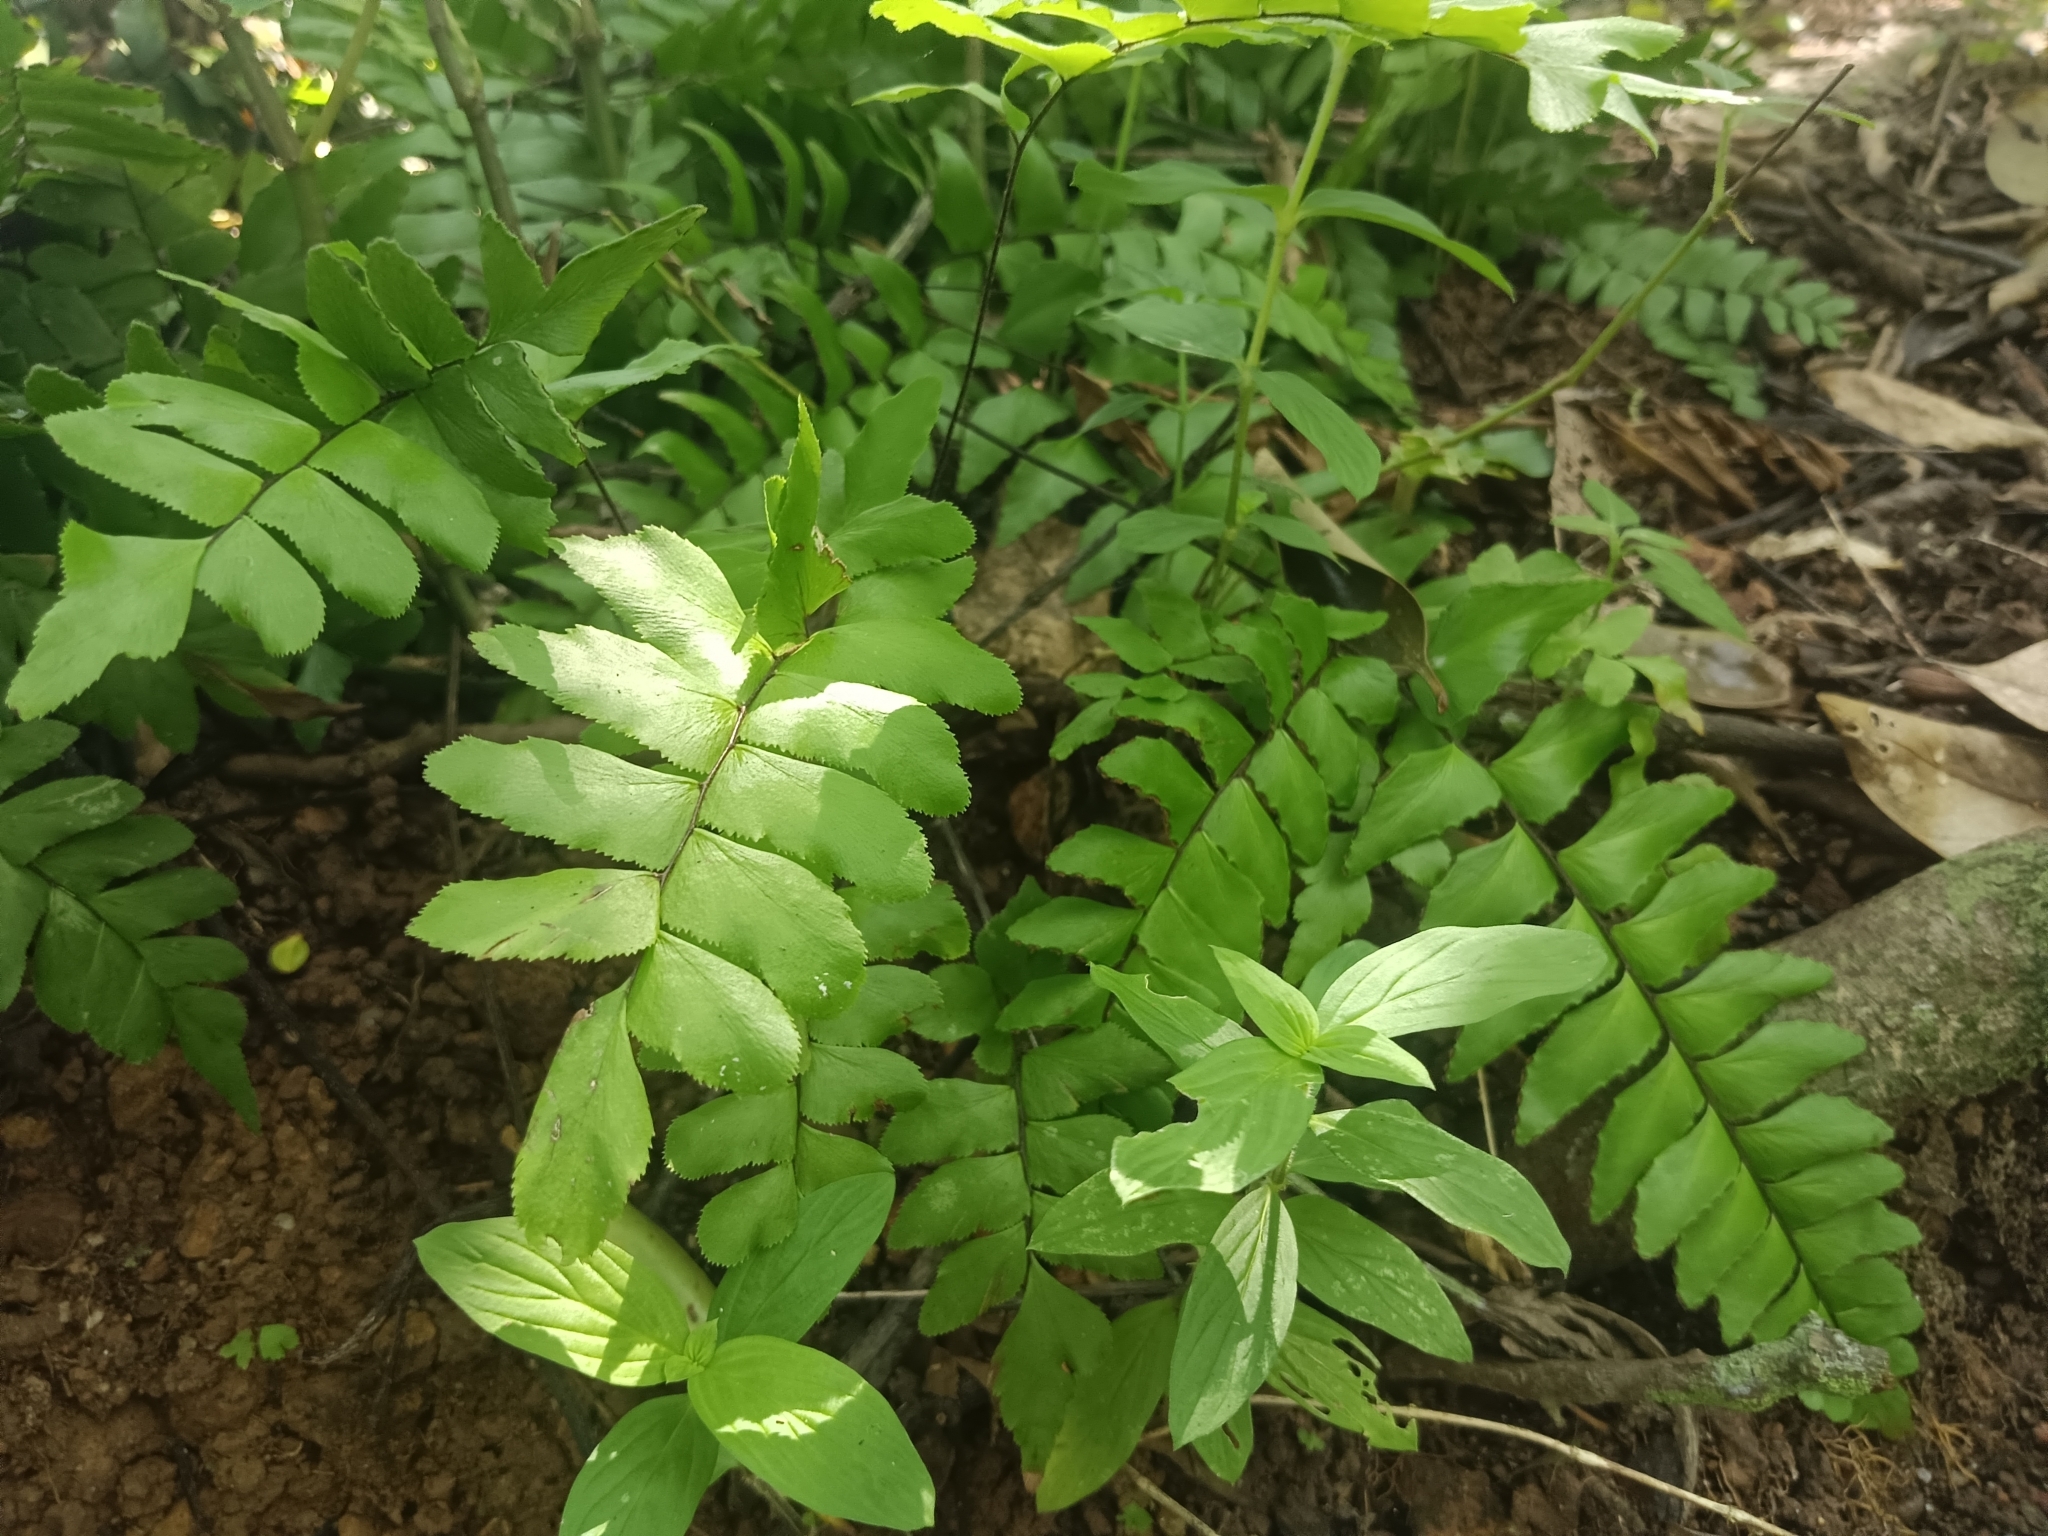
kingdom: Plantae
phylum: Tracheophyta
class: Polypodiopsida
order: Polypodiales
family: Pteridaceae
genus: Adiantum
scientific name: Adiantum latifolium
